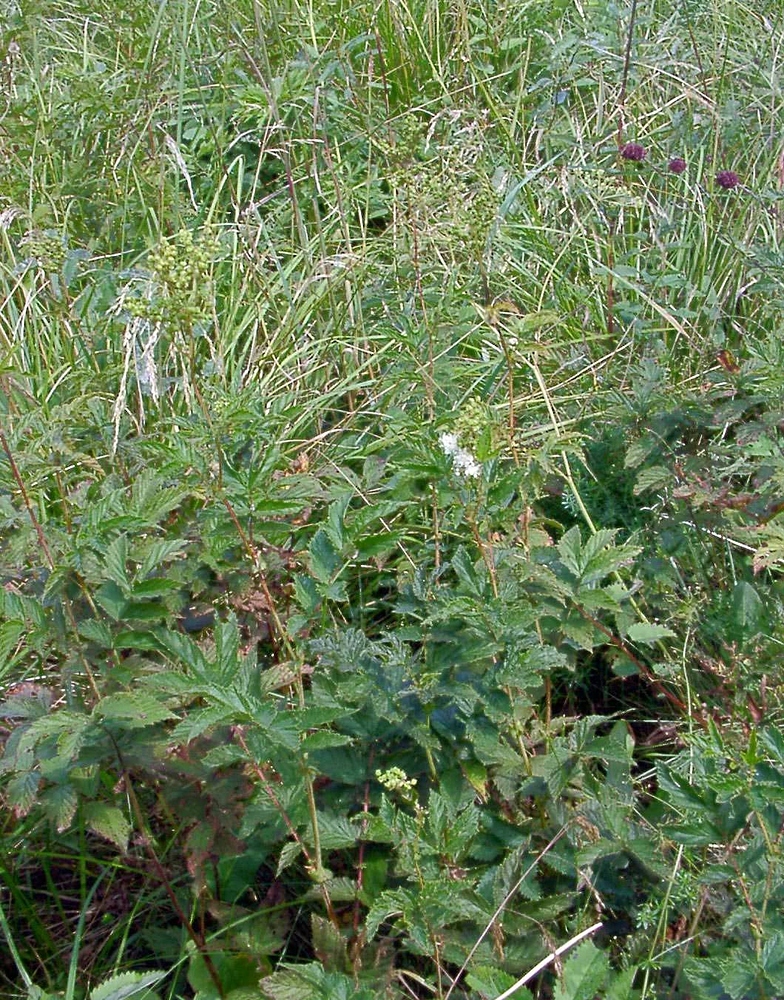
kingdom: Plantae
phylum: Tracheophyta
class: Magnoliopsida
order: Rosales
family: Rosaceae
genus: Filipendula
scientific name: Filipendula ulmaria
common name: Meadowsweet
